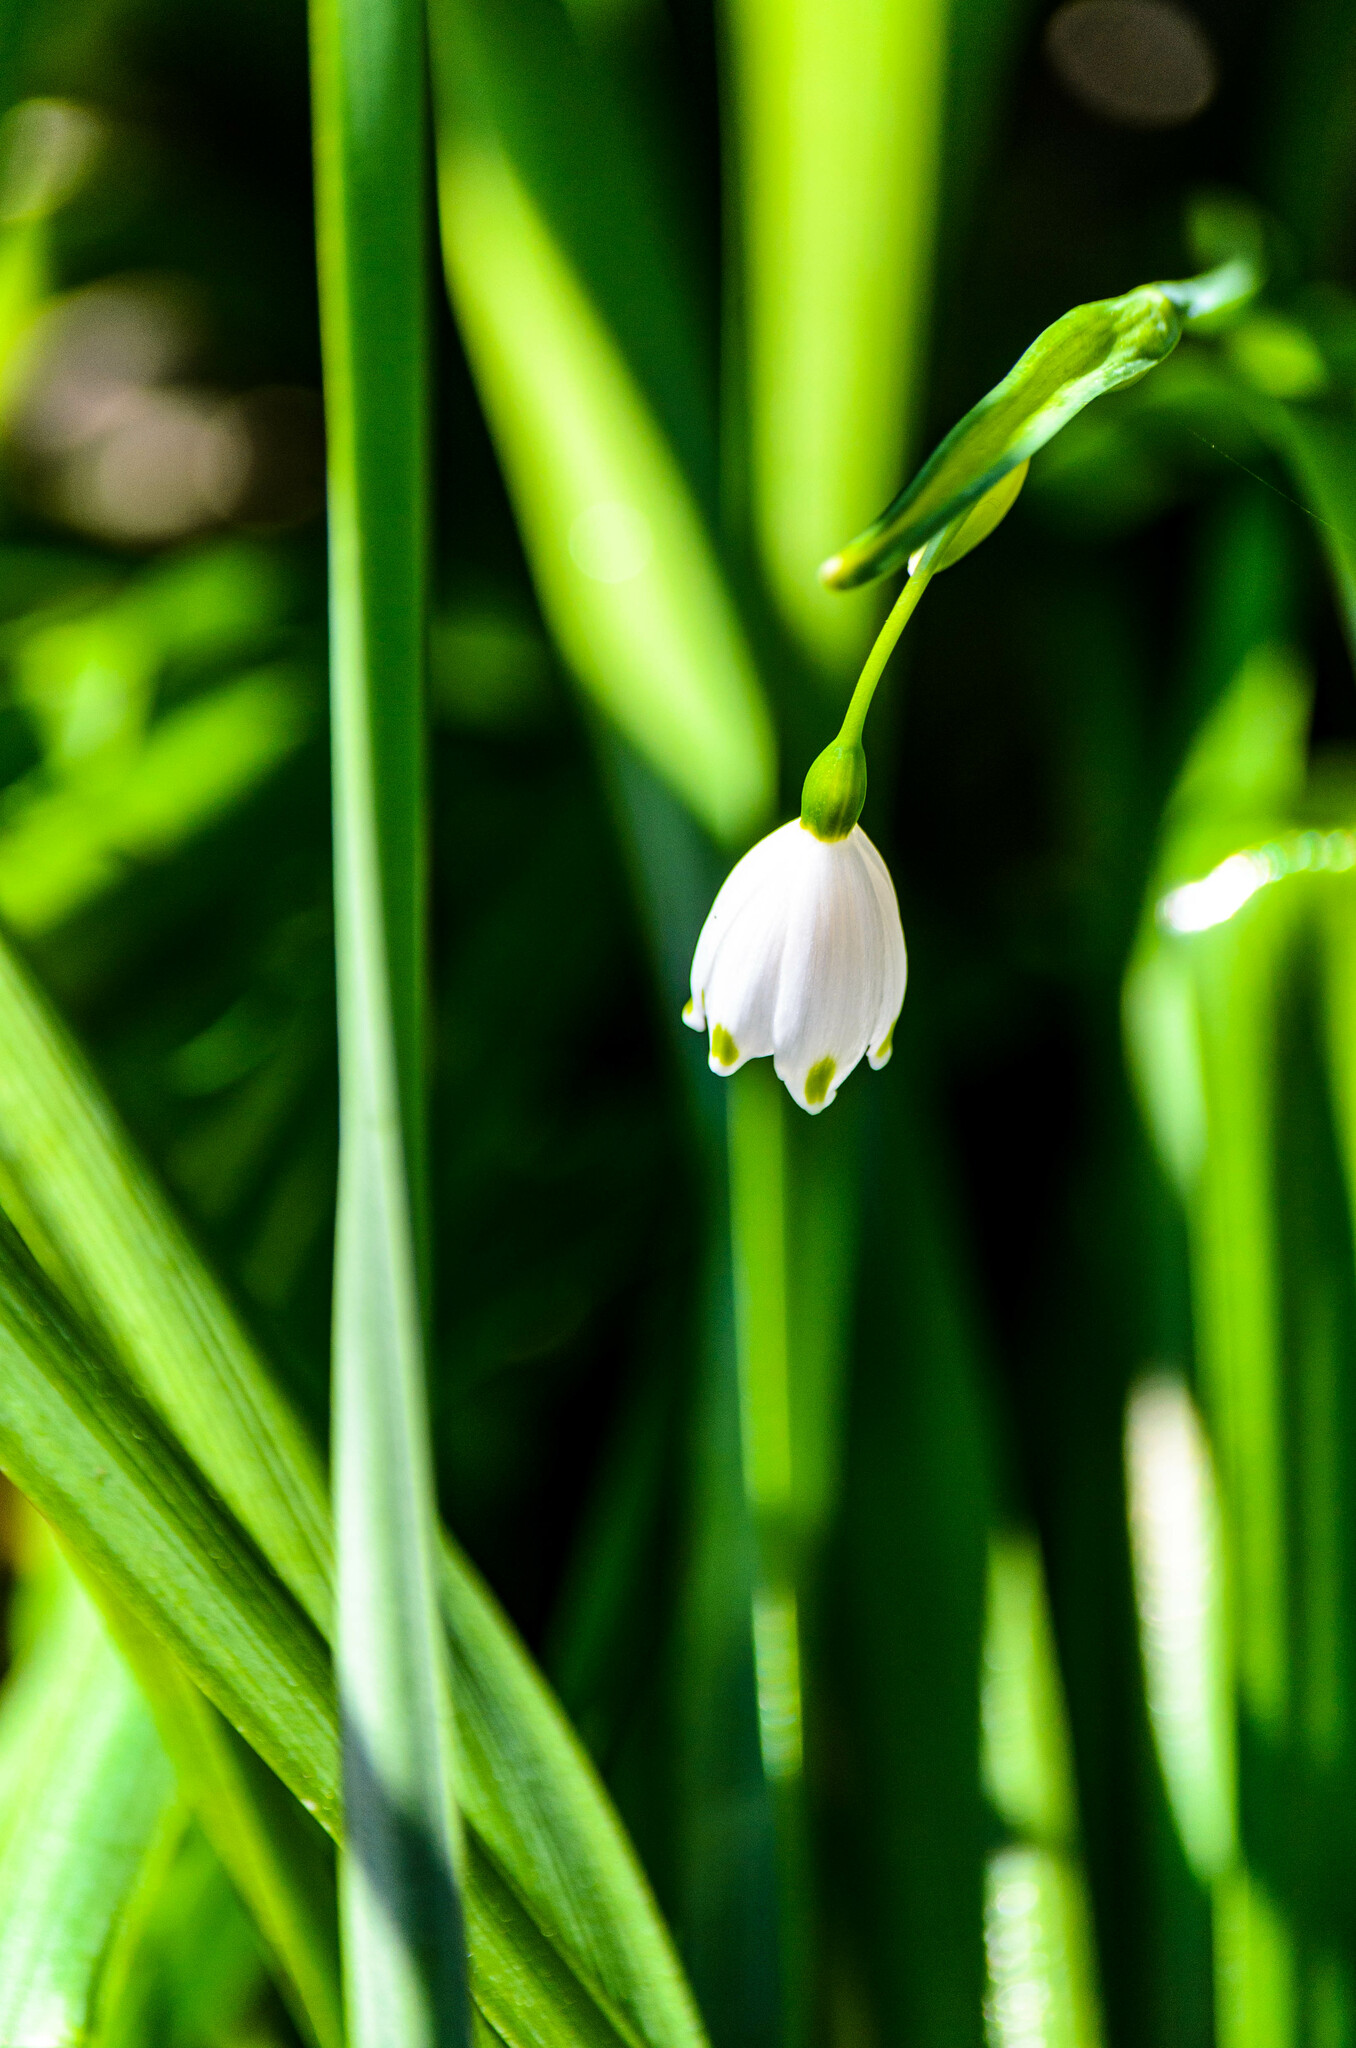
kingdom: Plantae
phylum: Tracheophyta
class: Liliopsida
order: Asparagales
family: Amaryllidaceae
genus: Leucojum
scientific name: Leucojum aestivum
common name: Summer snowflake
